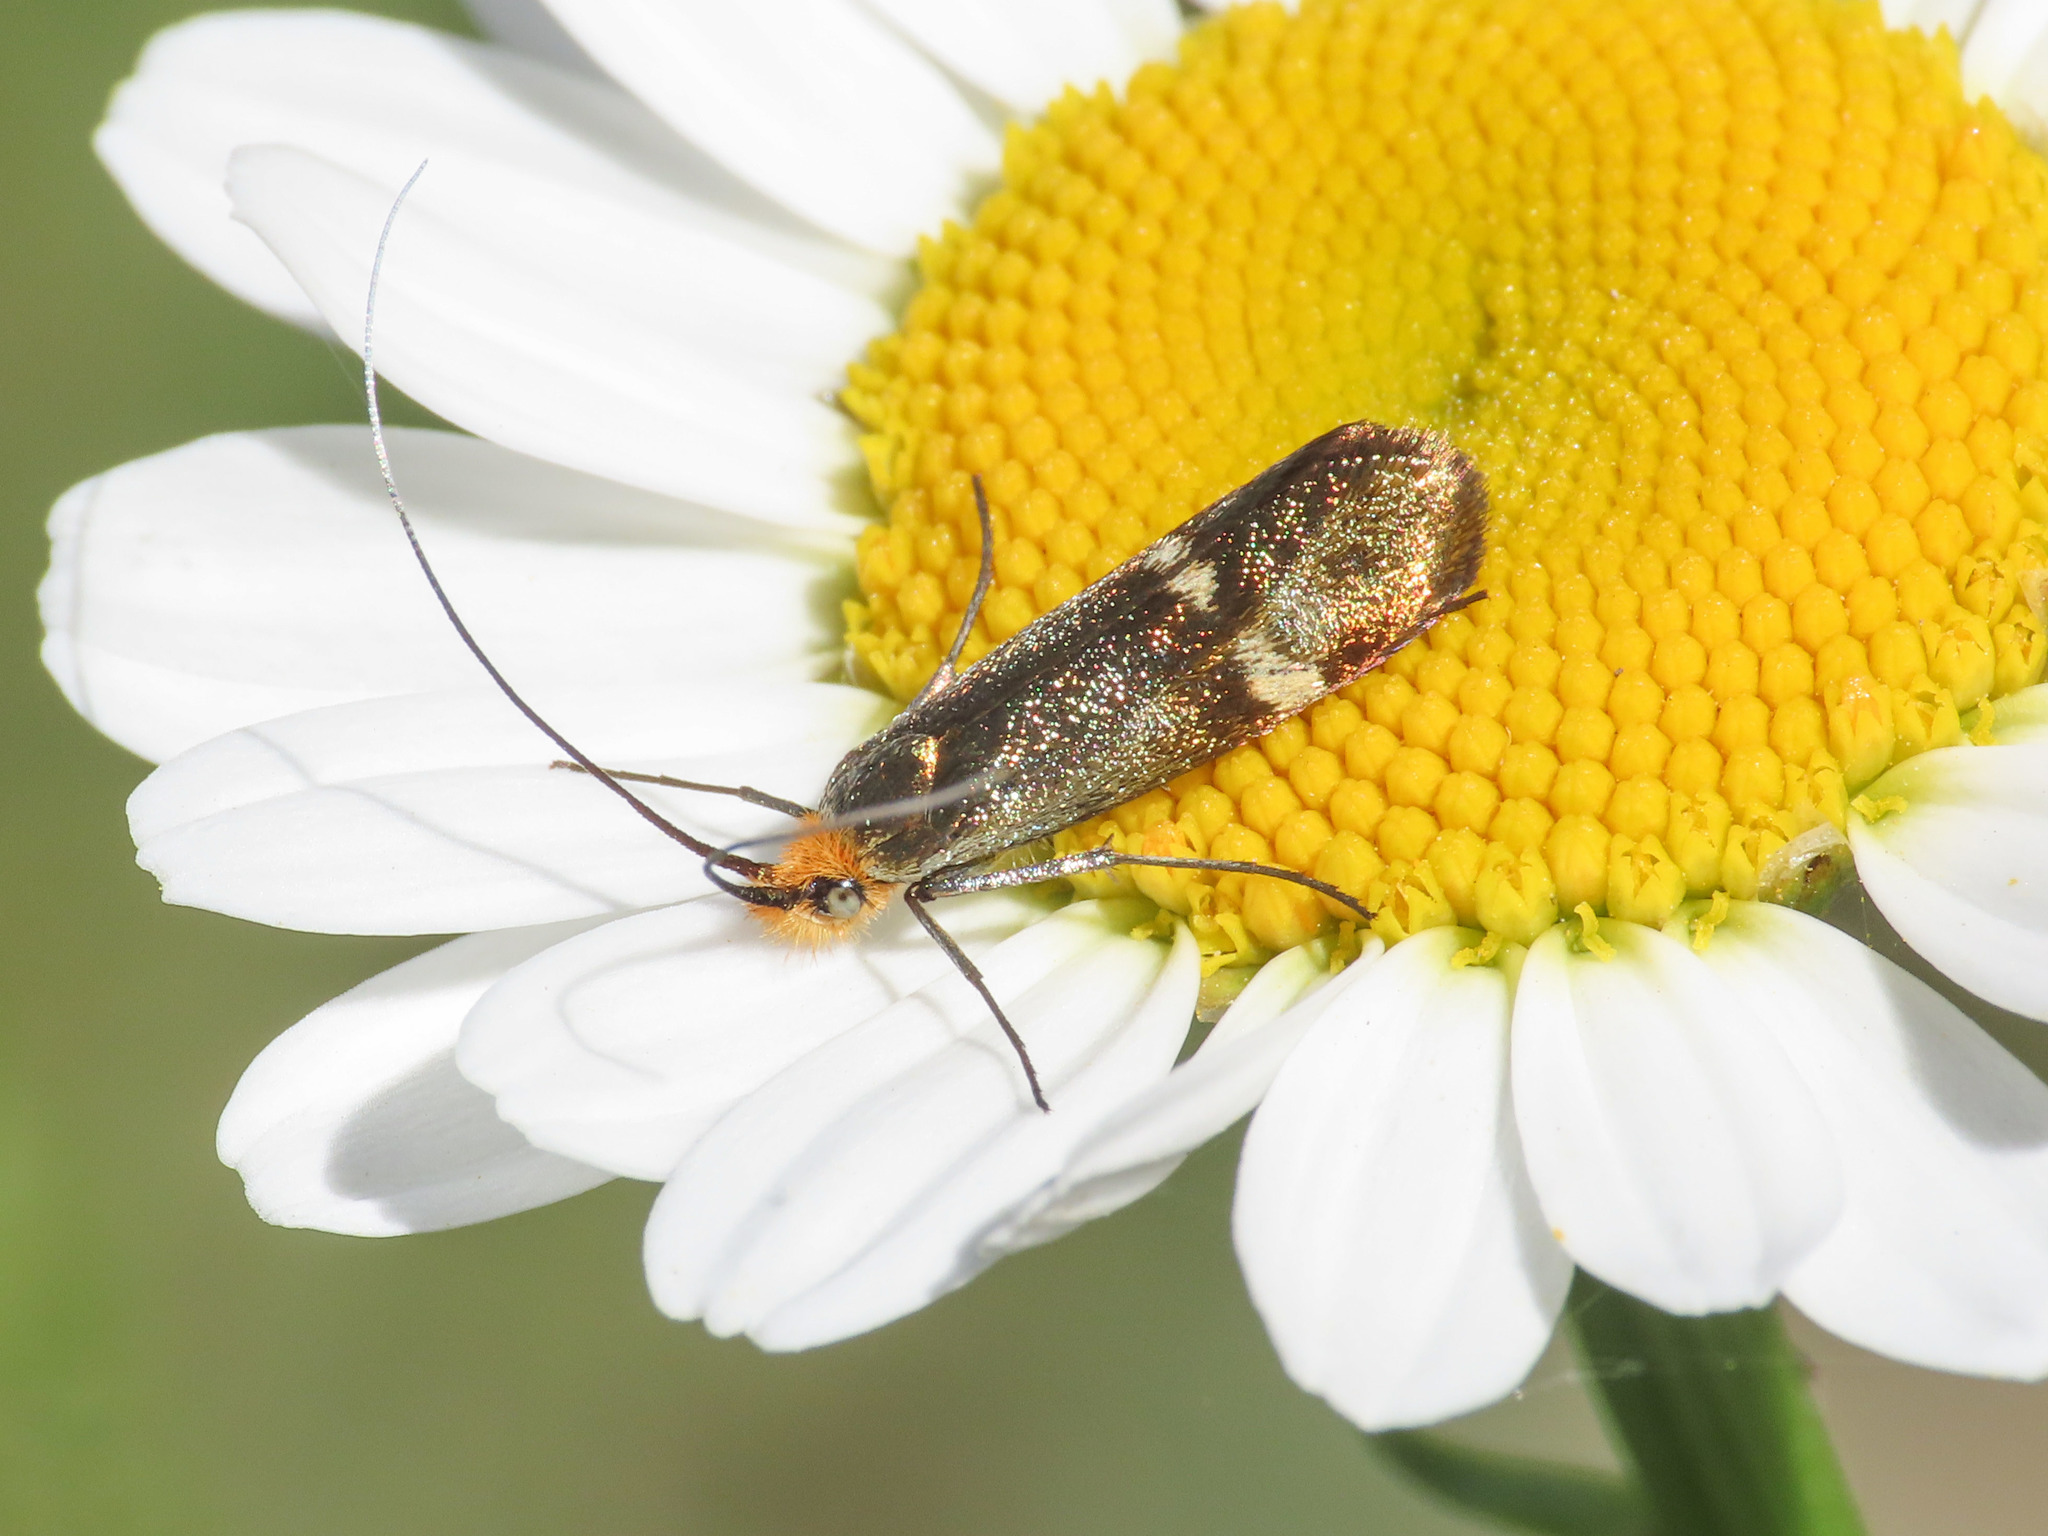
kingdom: Animalia
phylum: Arthropoda
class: Insecta
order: Lepidoptera
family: Adelidae
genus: Nemophora
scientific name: Nemophora raddaella
